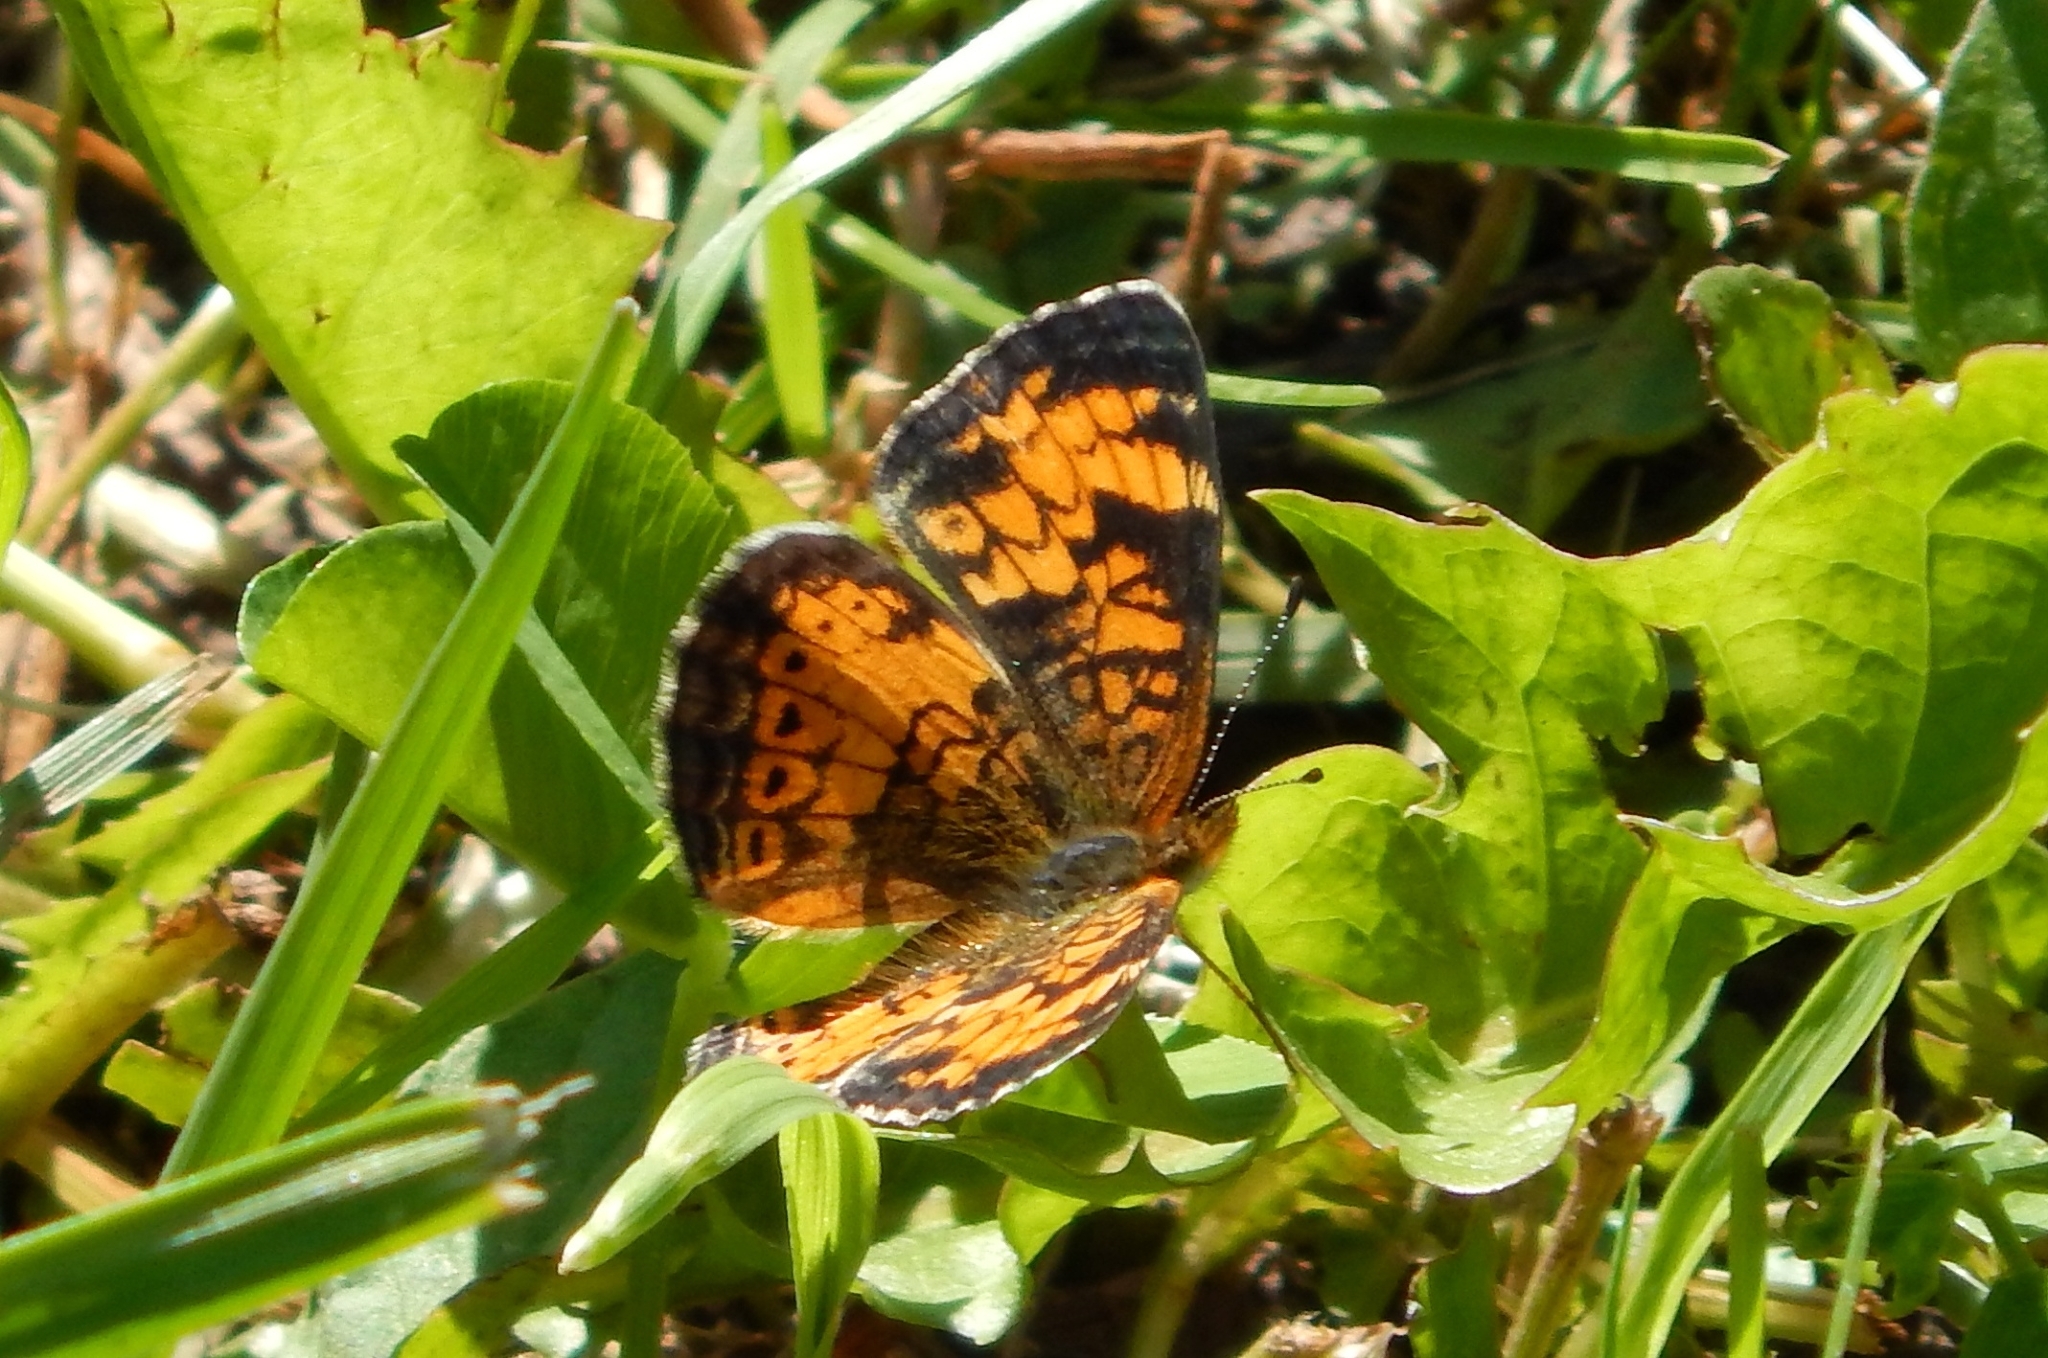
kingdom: Animalia
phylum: Arthropoda
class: Insecta
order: Lepidoptera
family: Nymphalidae
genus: Phyciodes
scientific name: Phyciodes tharos
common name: Pearl crescent
